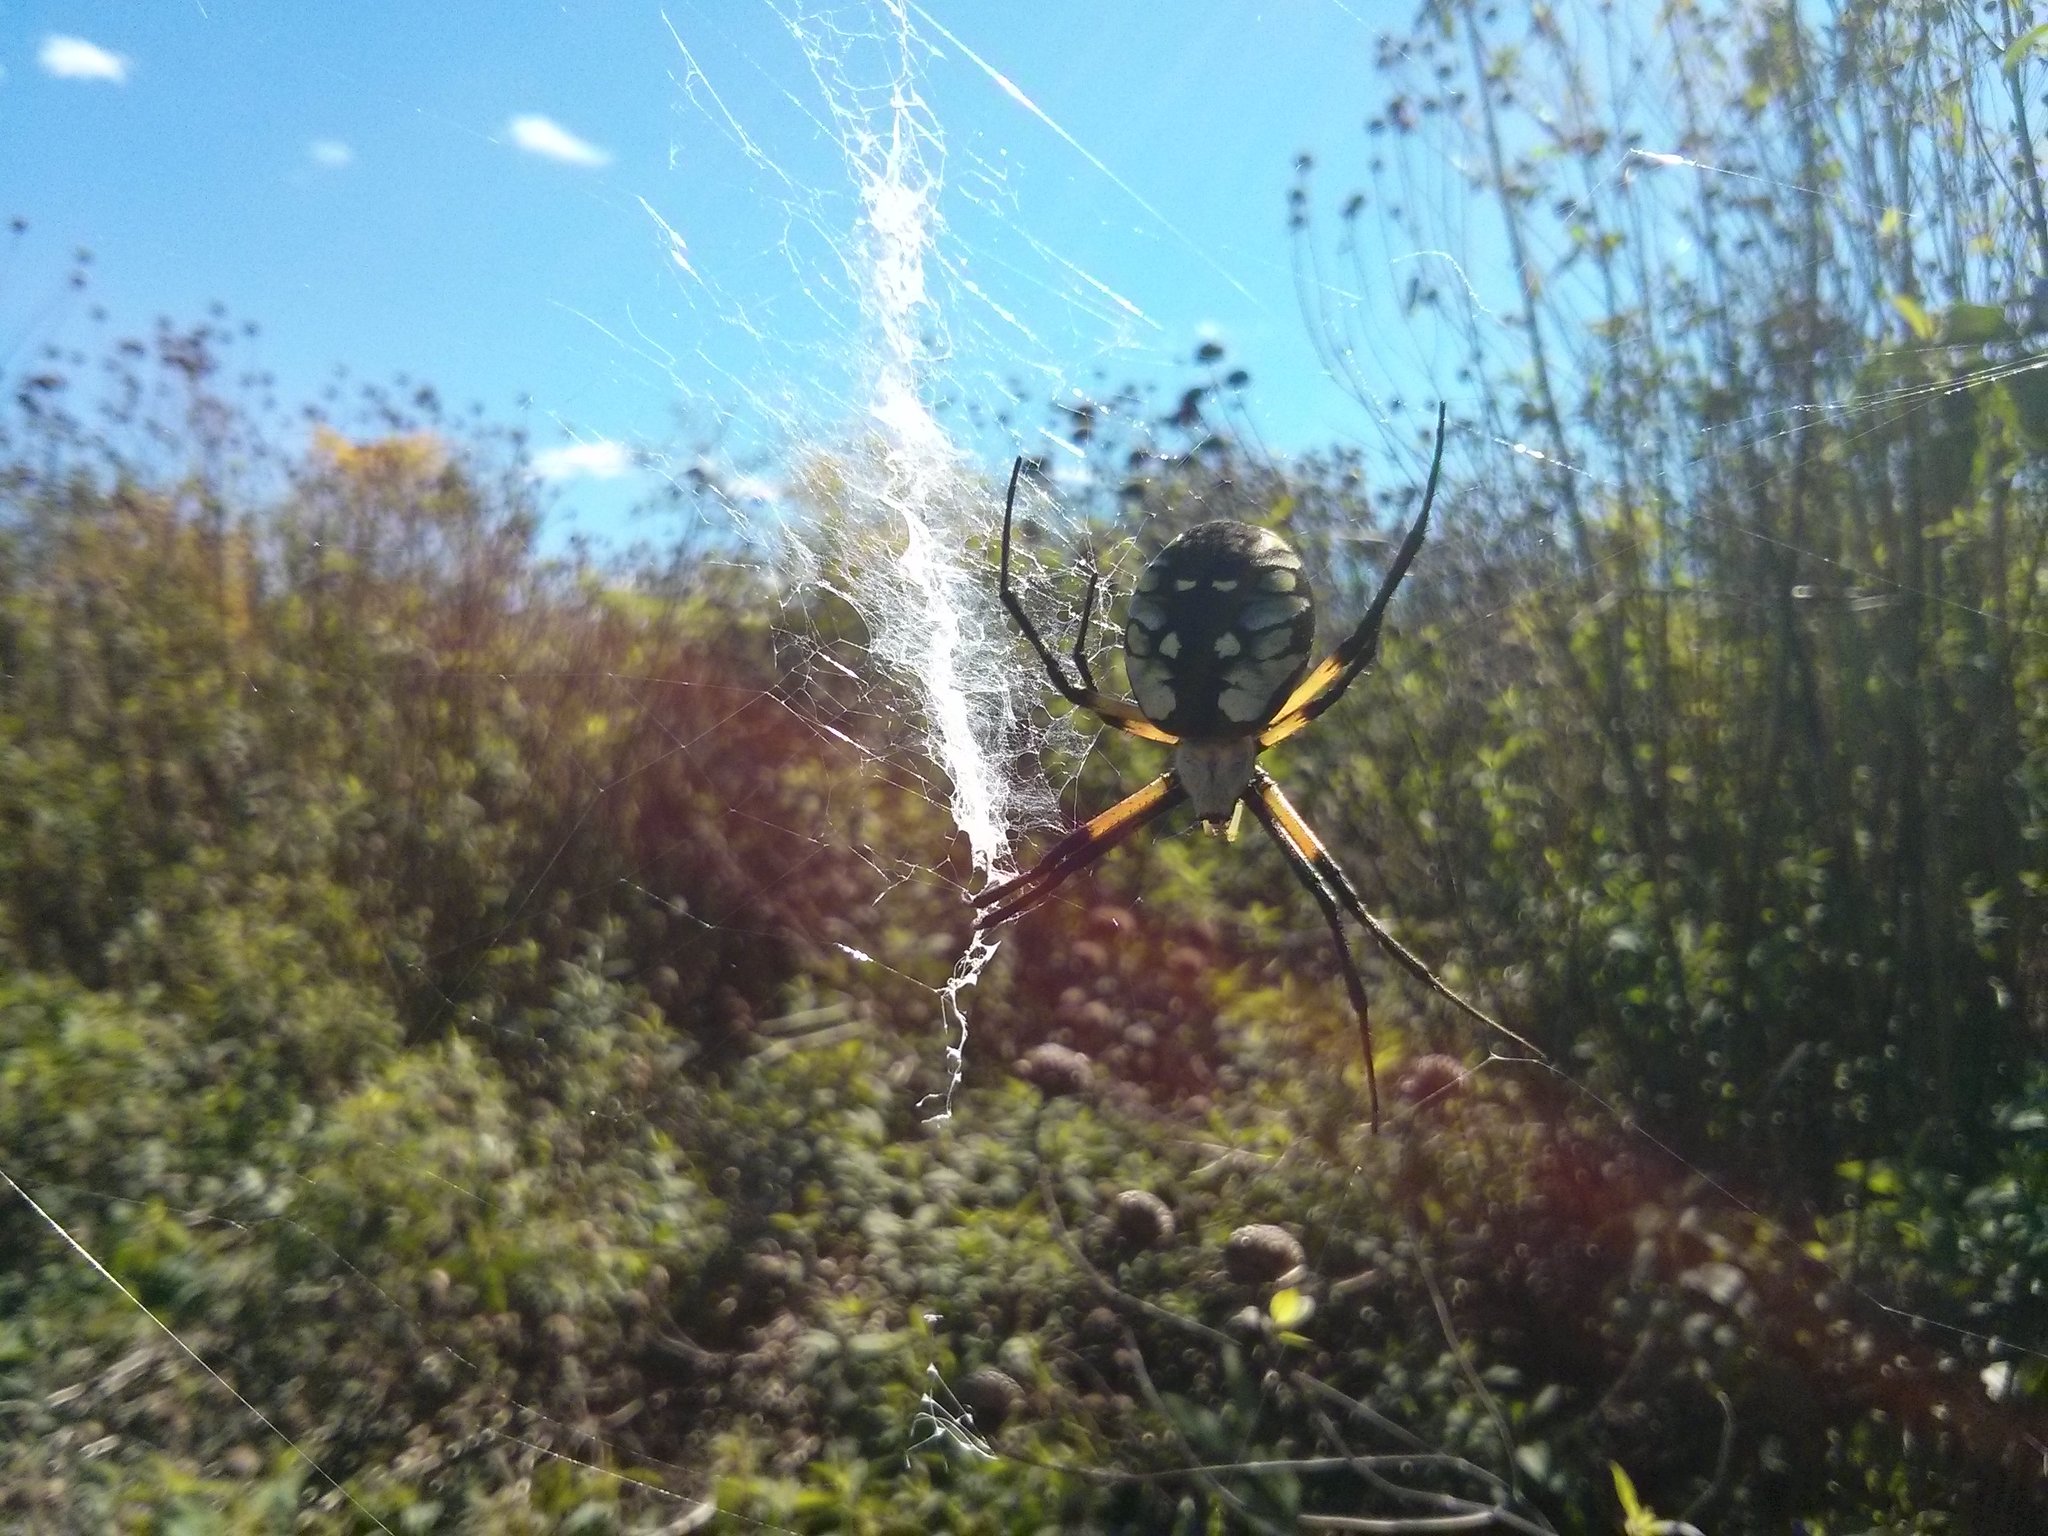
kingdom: Animalia
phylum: Arthropoda
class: Arachnida
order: Araneae
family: Araneidae
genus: Argiope
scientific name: Argiope aurantia
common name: Orb weavers
